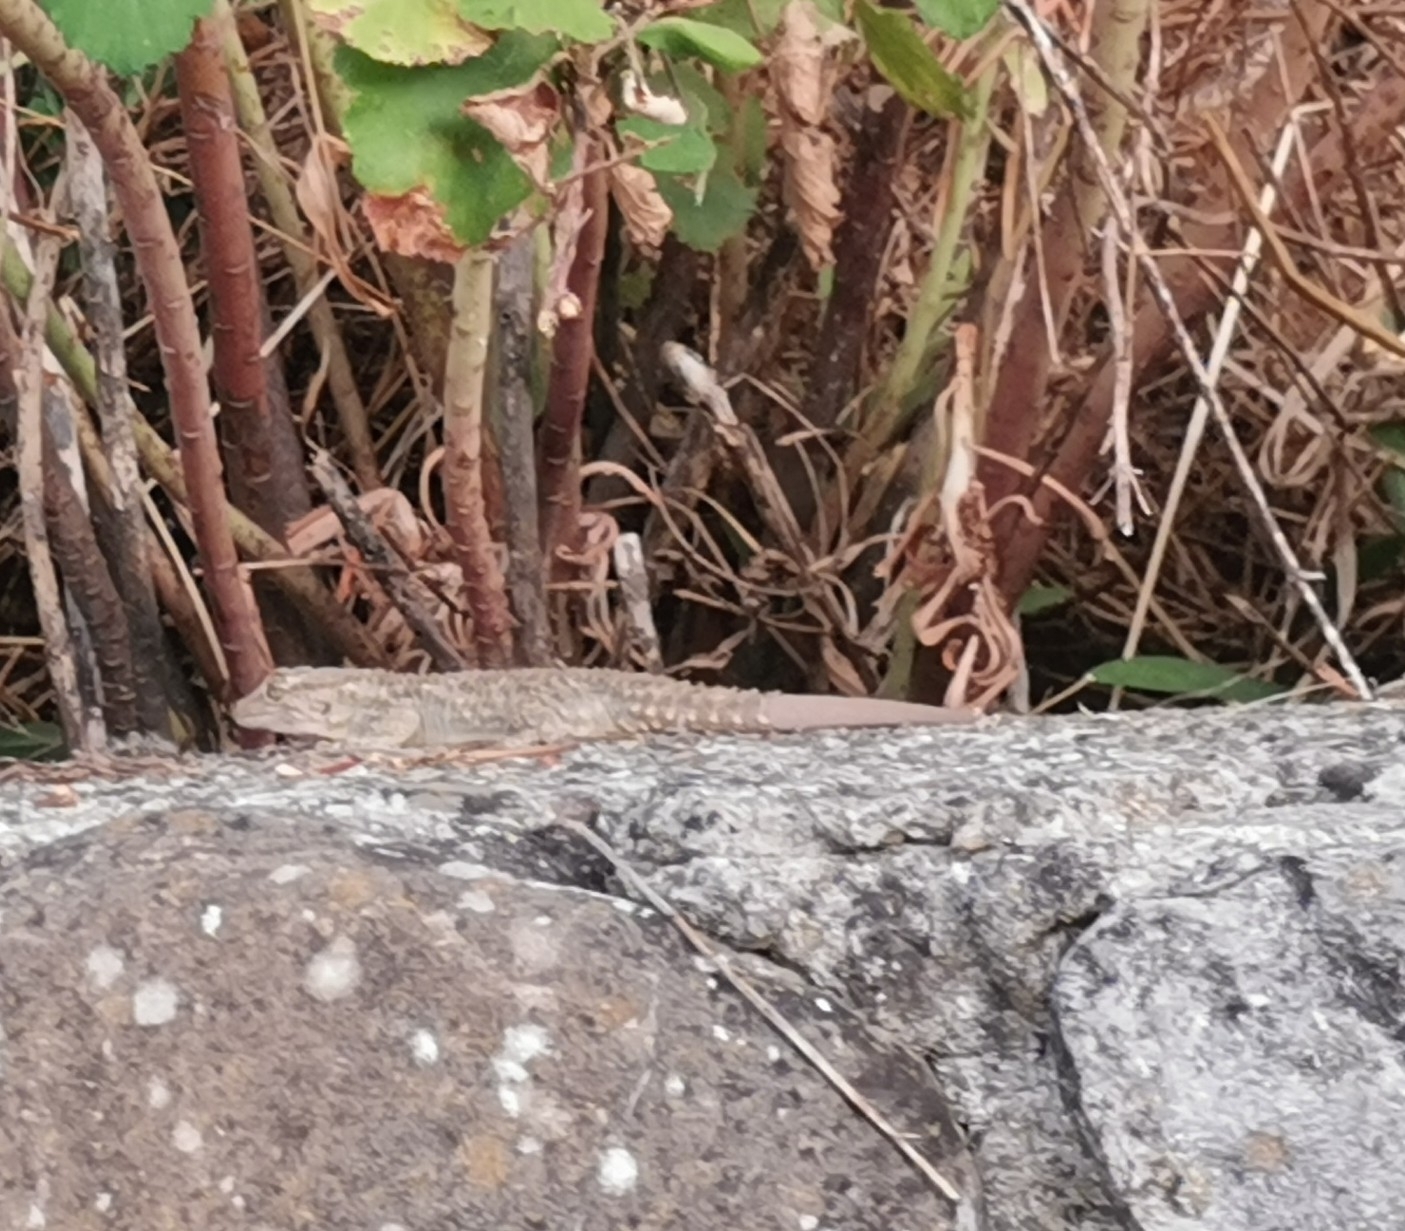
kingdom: Animalia
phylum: Chordata
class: Squamata
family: Phyllodactylidae
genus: Tarentola
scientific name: Tarentola mauritanica
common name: Moorish gecko
